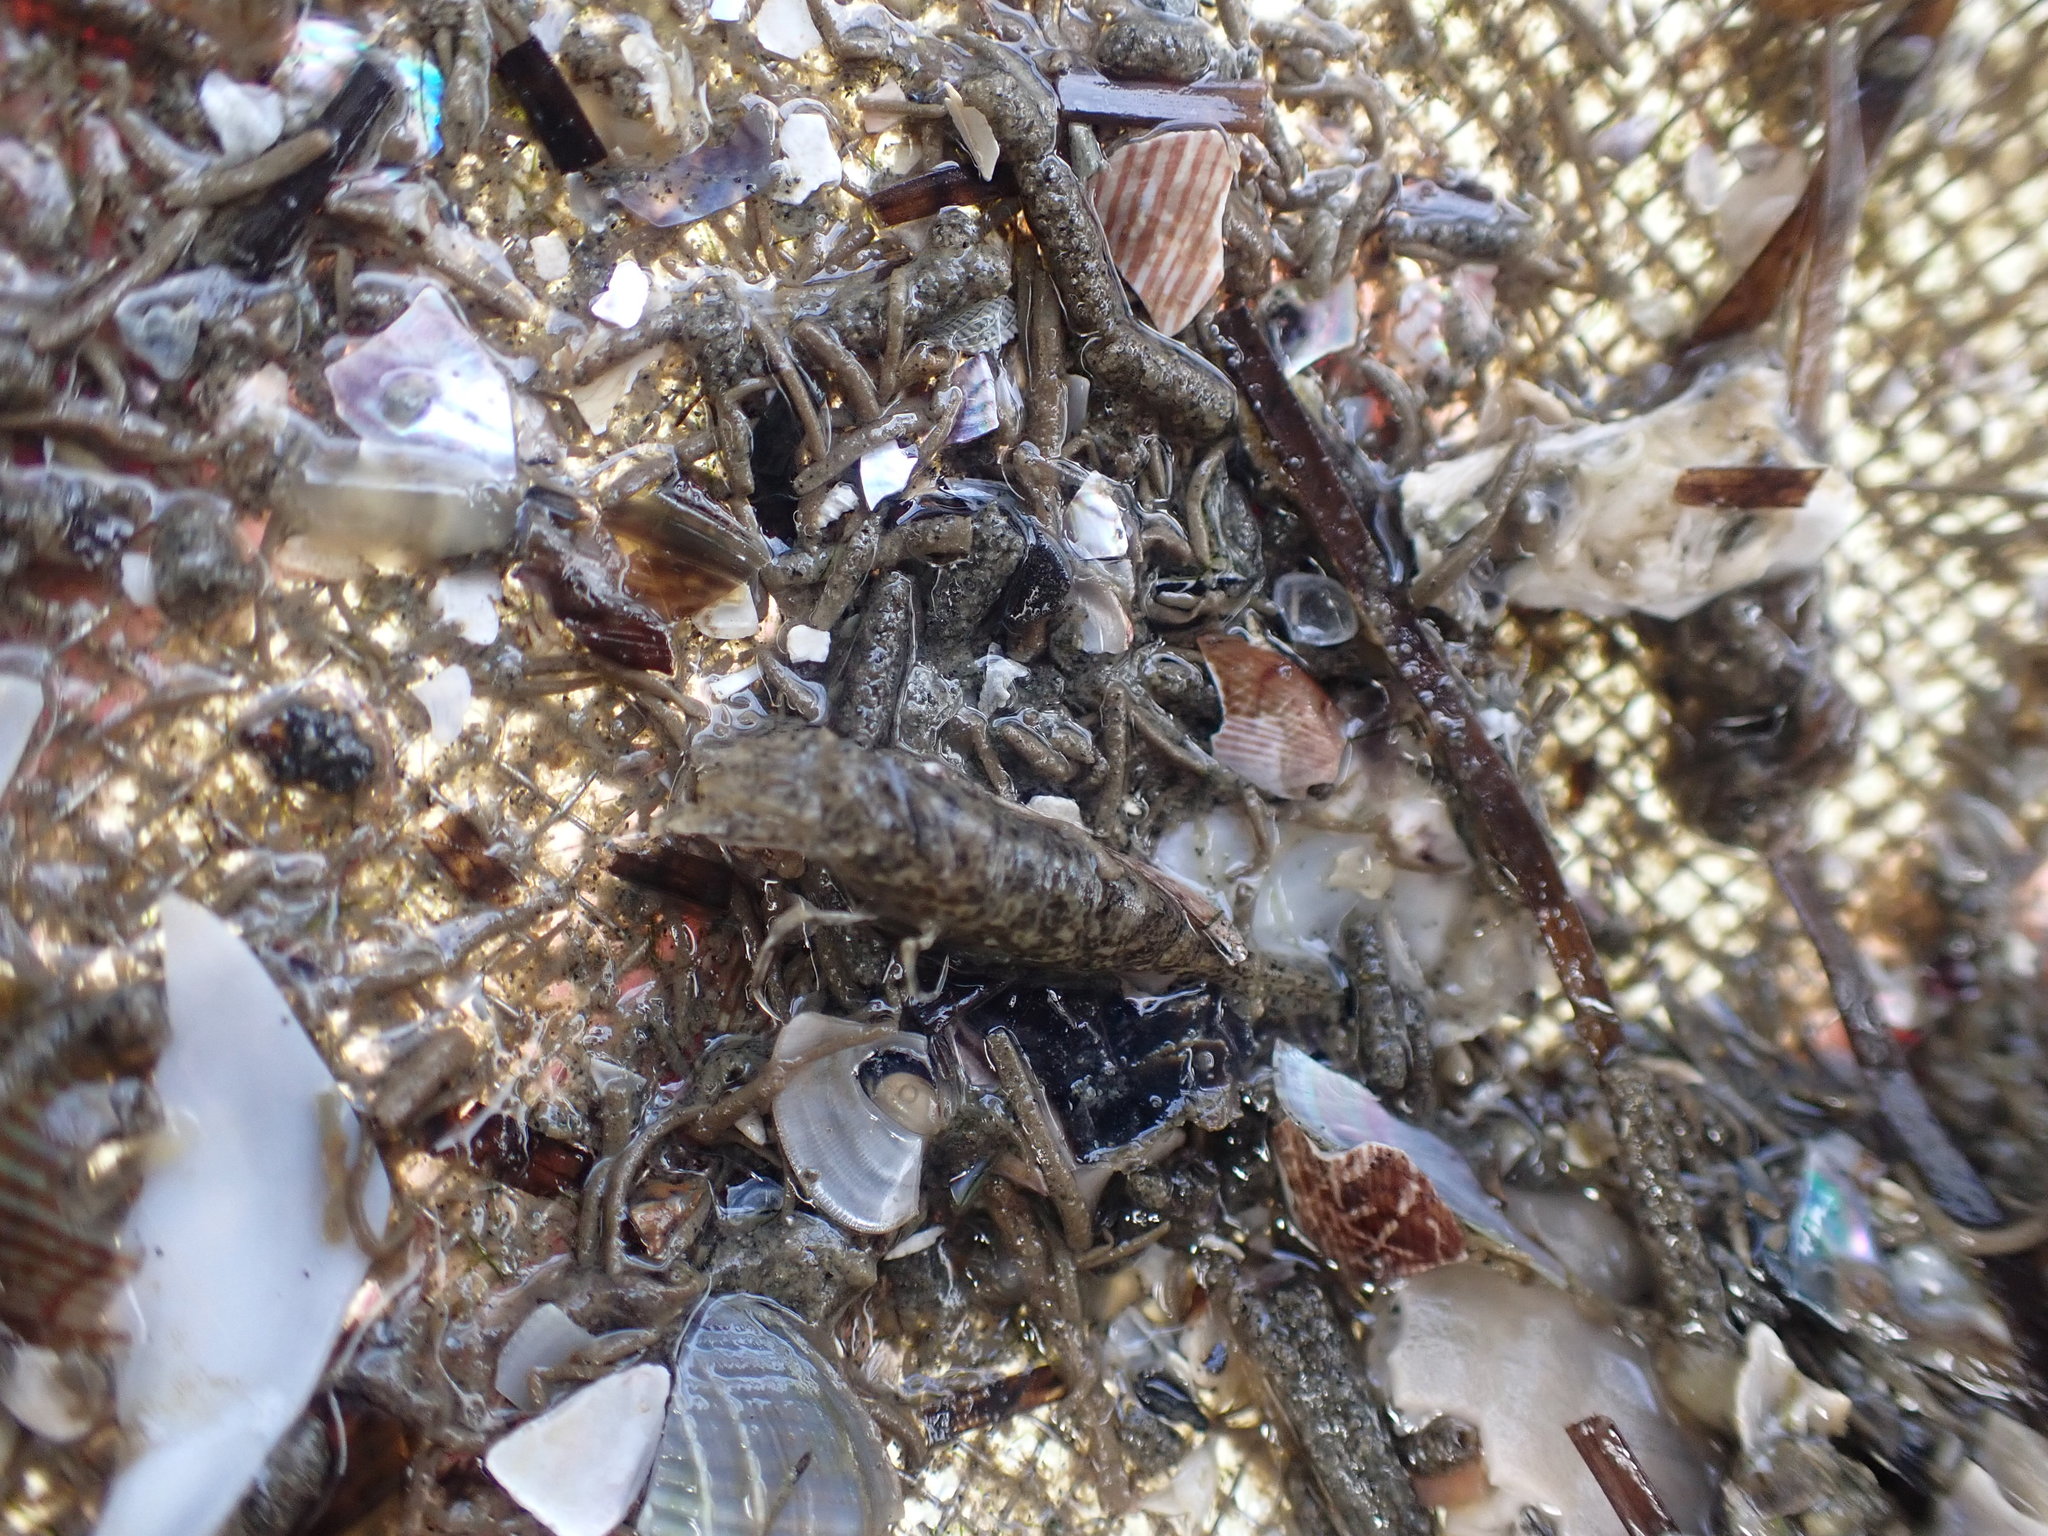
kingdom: Animalia
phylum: Arthropoda
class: Malacostraca
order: Decapoda
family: Crangonidae
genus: Philocheras
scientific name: Philocheras australis
